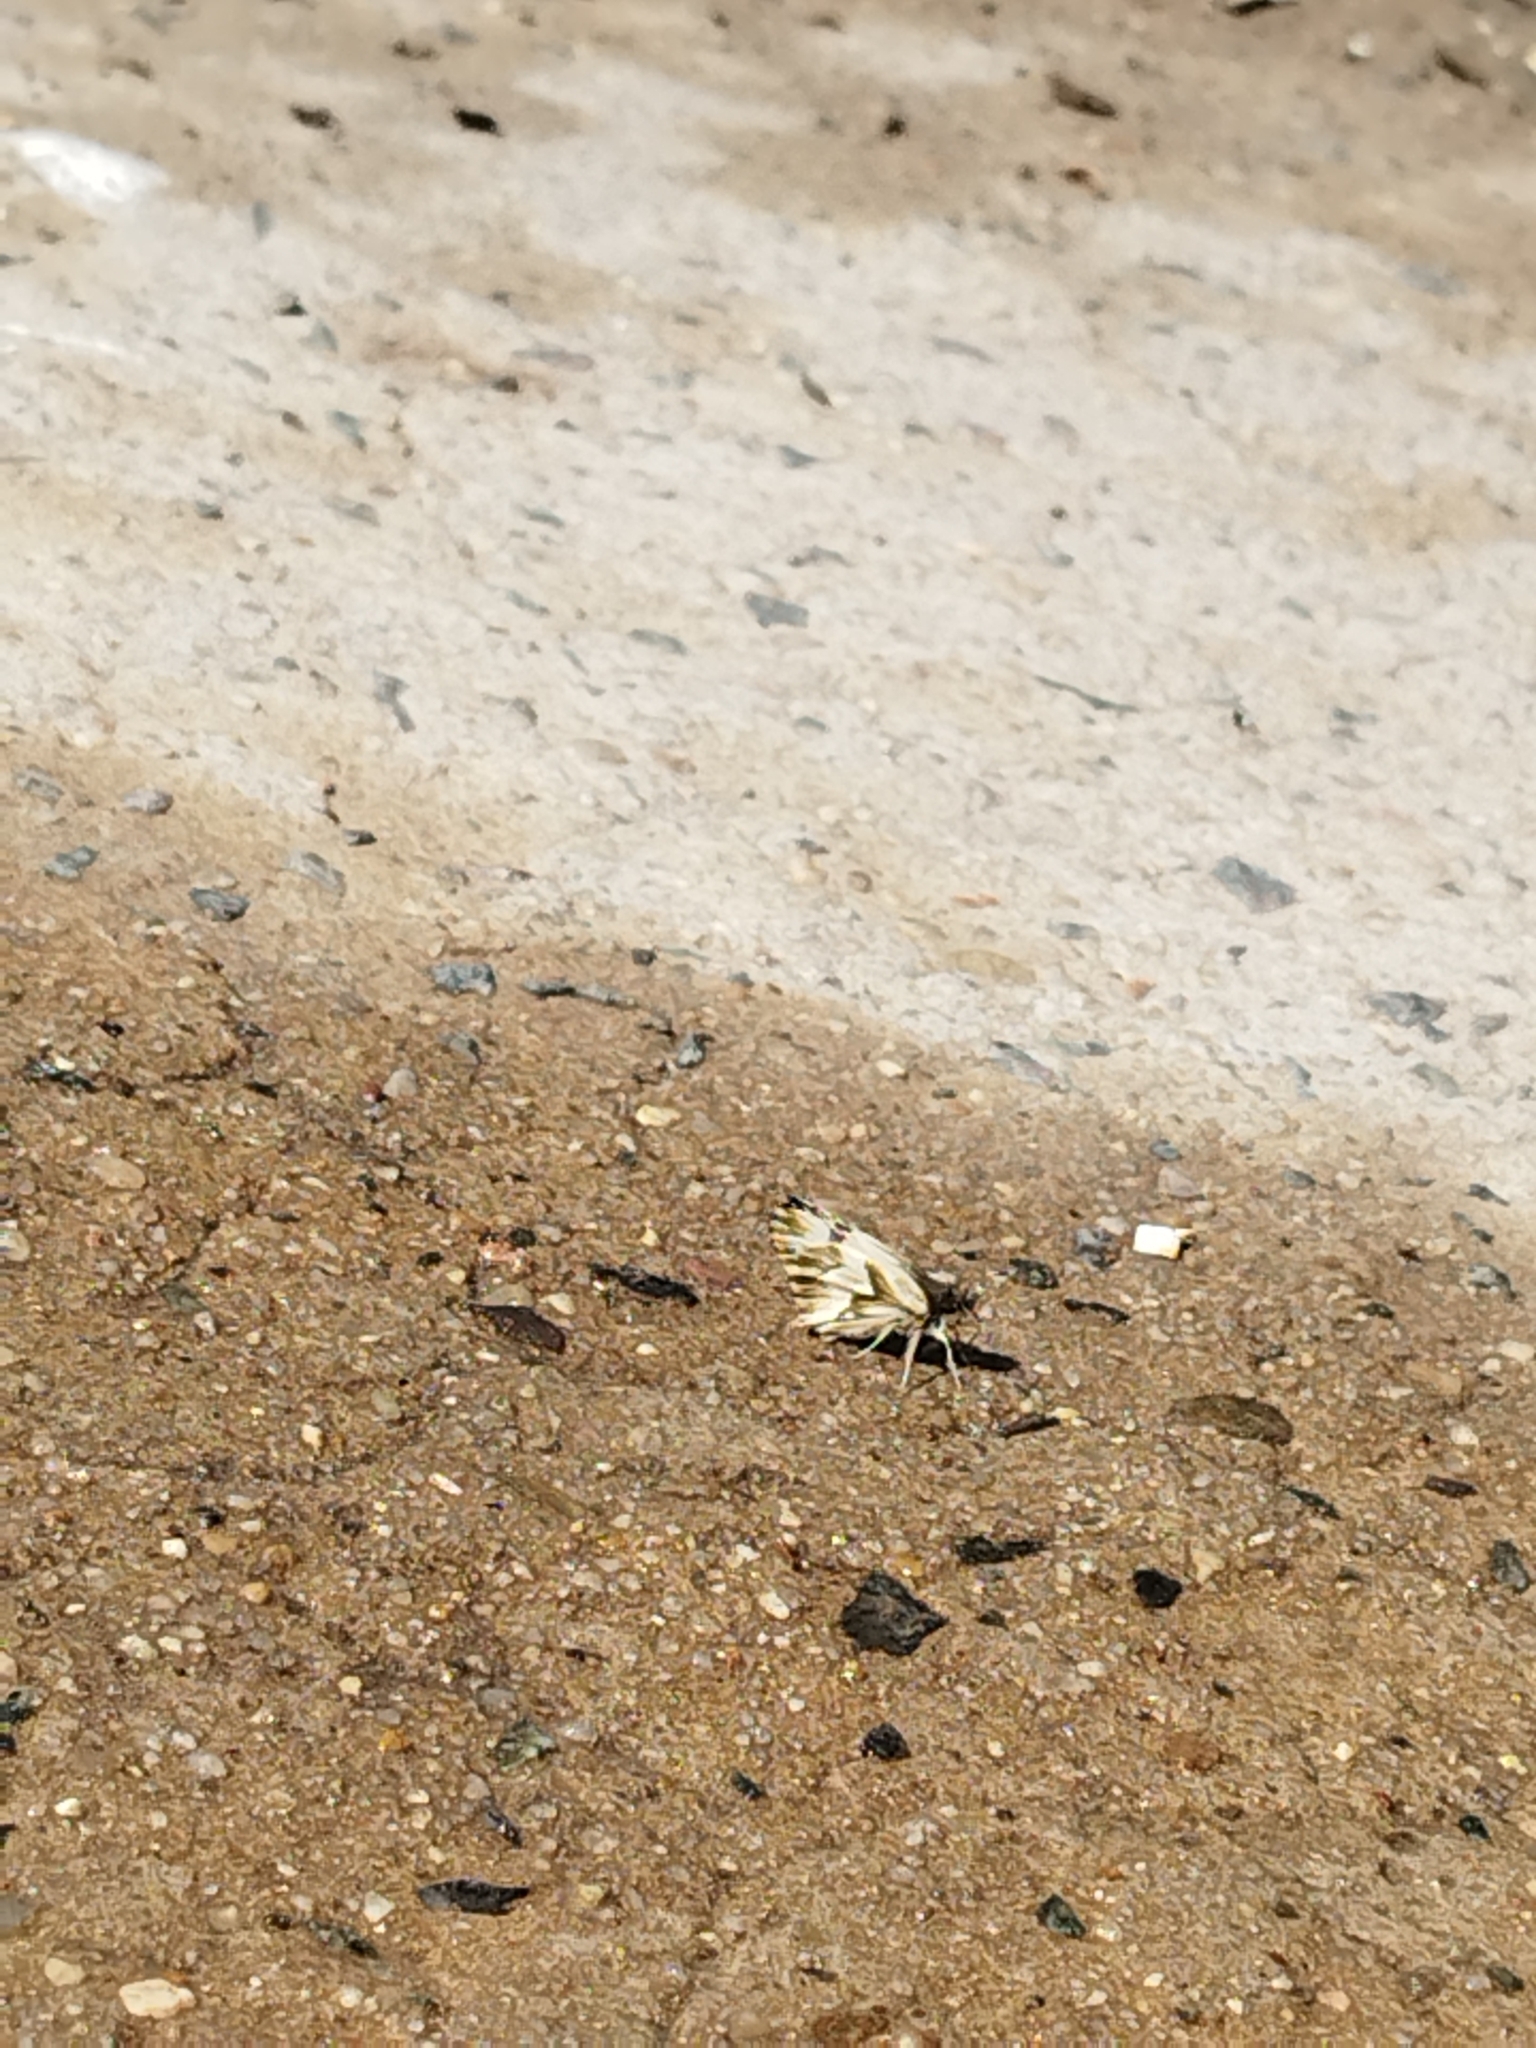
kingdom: Animalia
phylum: Arthropoda
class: Insecta
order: Lepidoptera
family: Hesperiidae
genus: Heliopetes
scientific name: Heliopetes omrina
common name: Stained white-skipper
